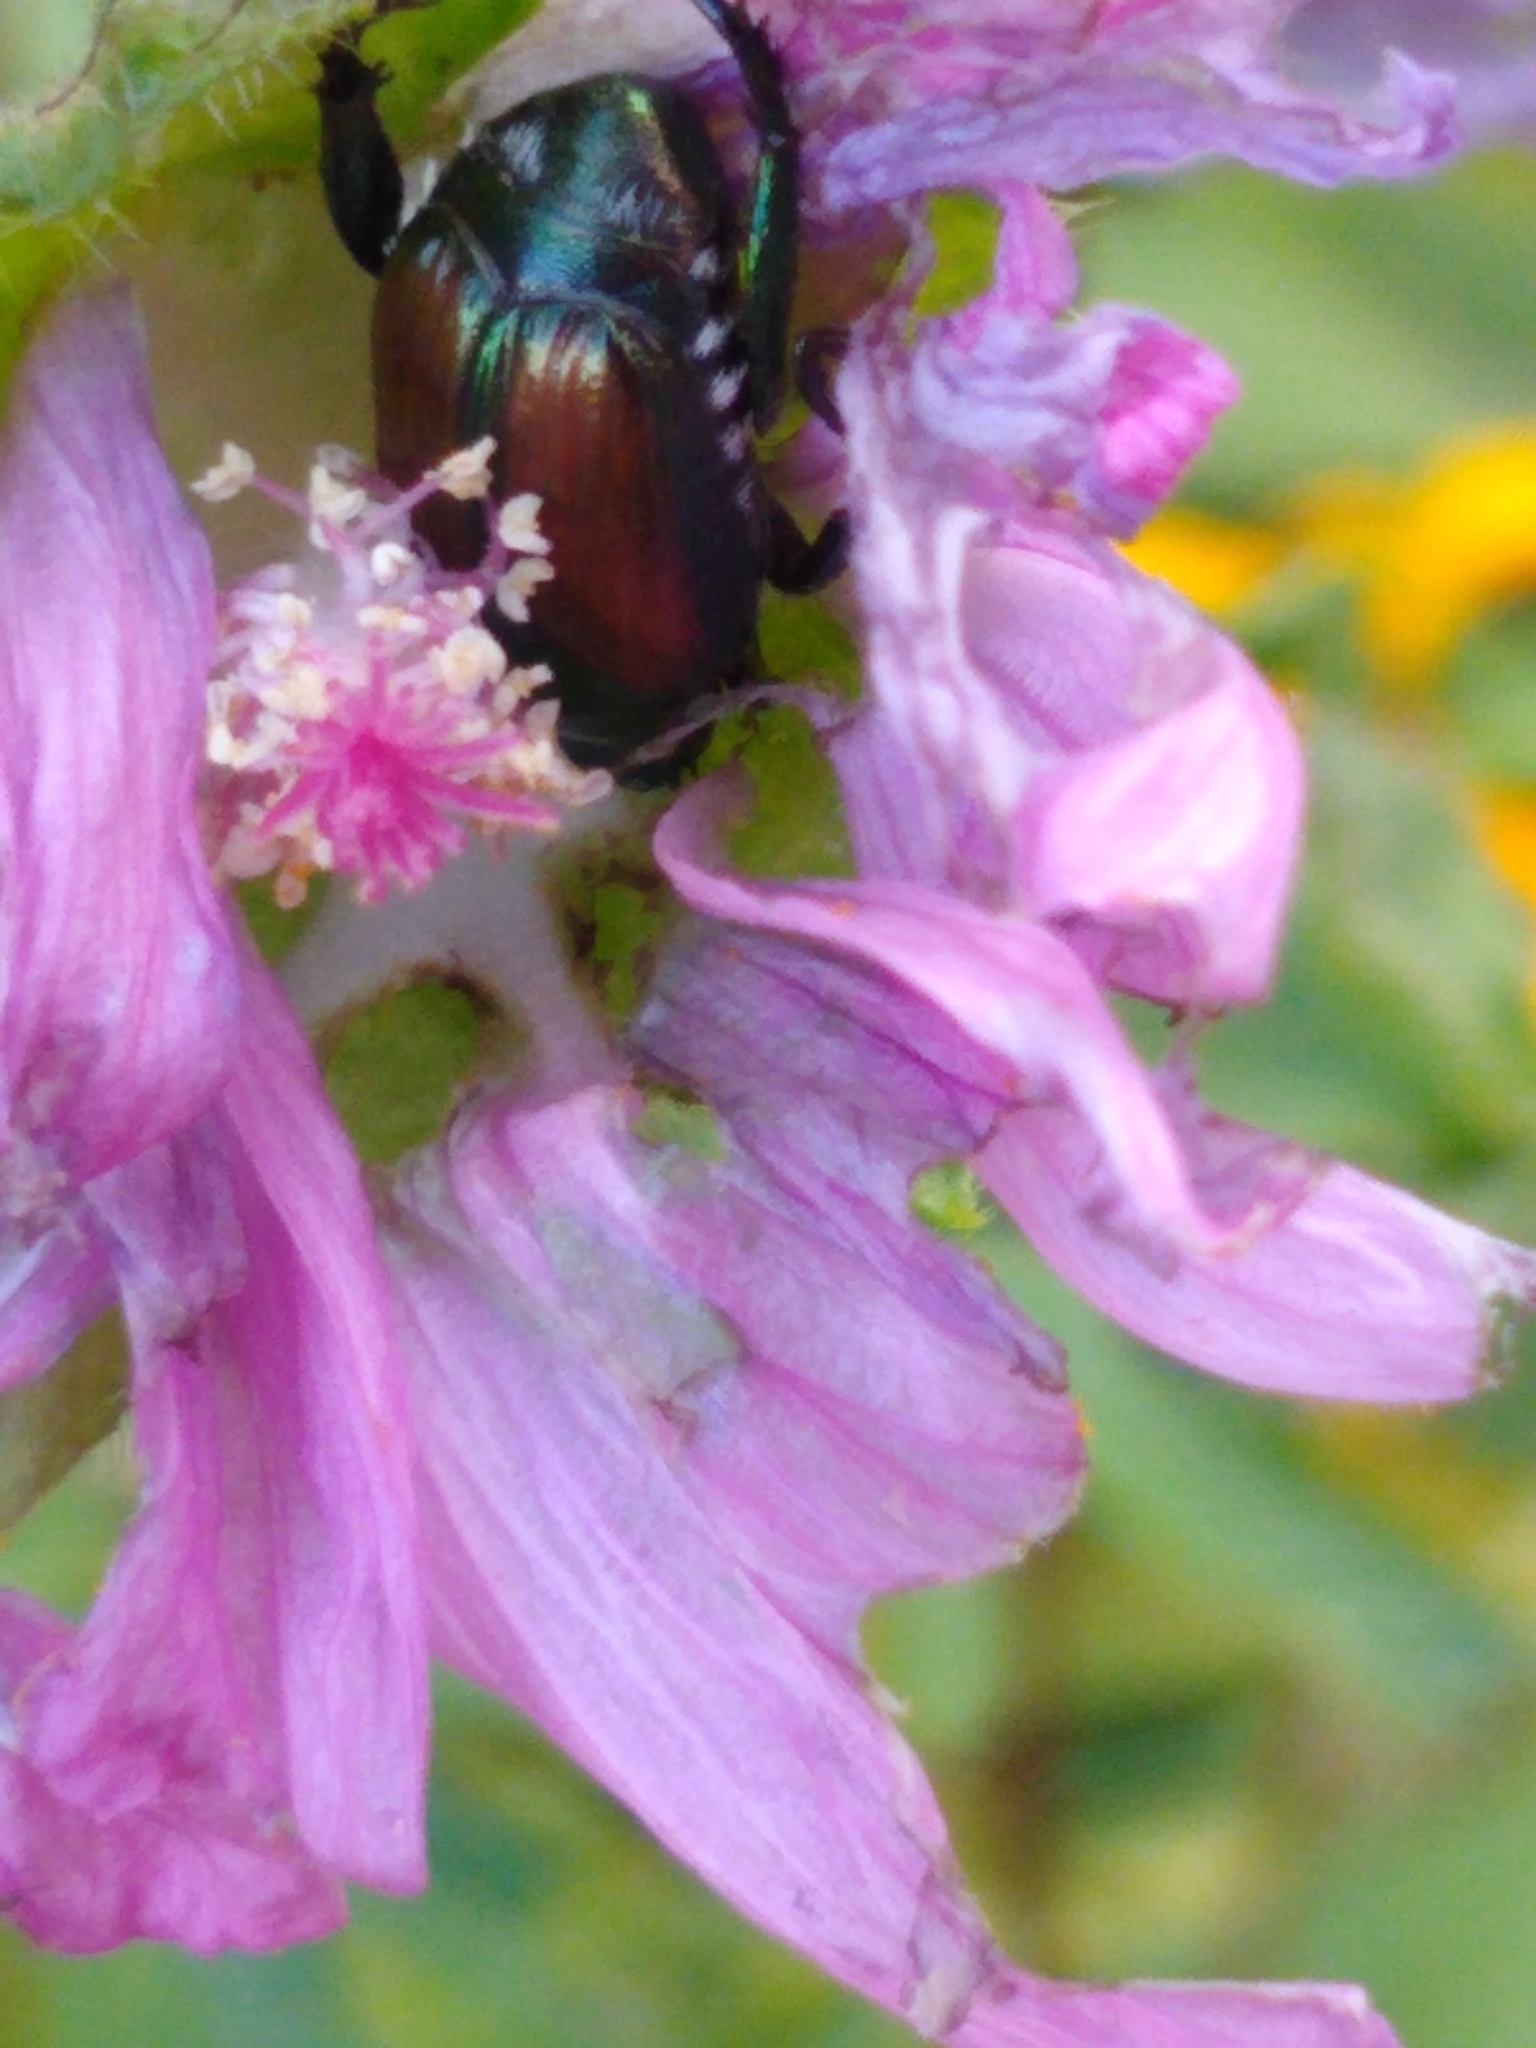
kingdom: Animalia
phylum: Arthropoda
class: Insecta
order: Coleoptera
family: Scarabaeidae
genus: Popillia
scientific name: Popillia japonica
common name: Japanese beetle
